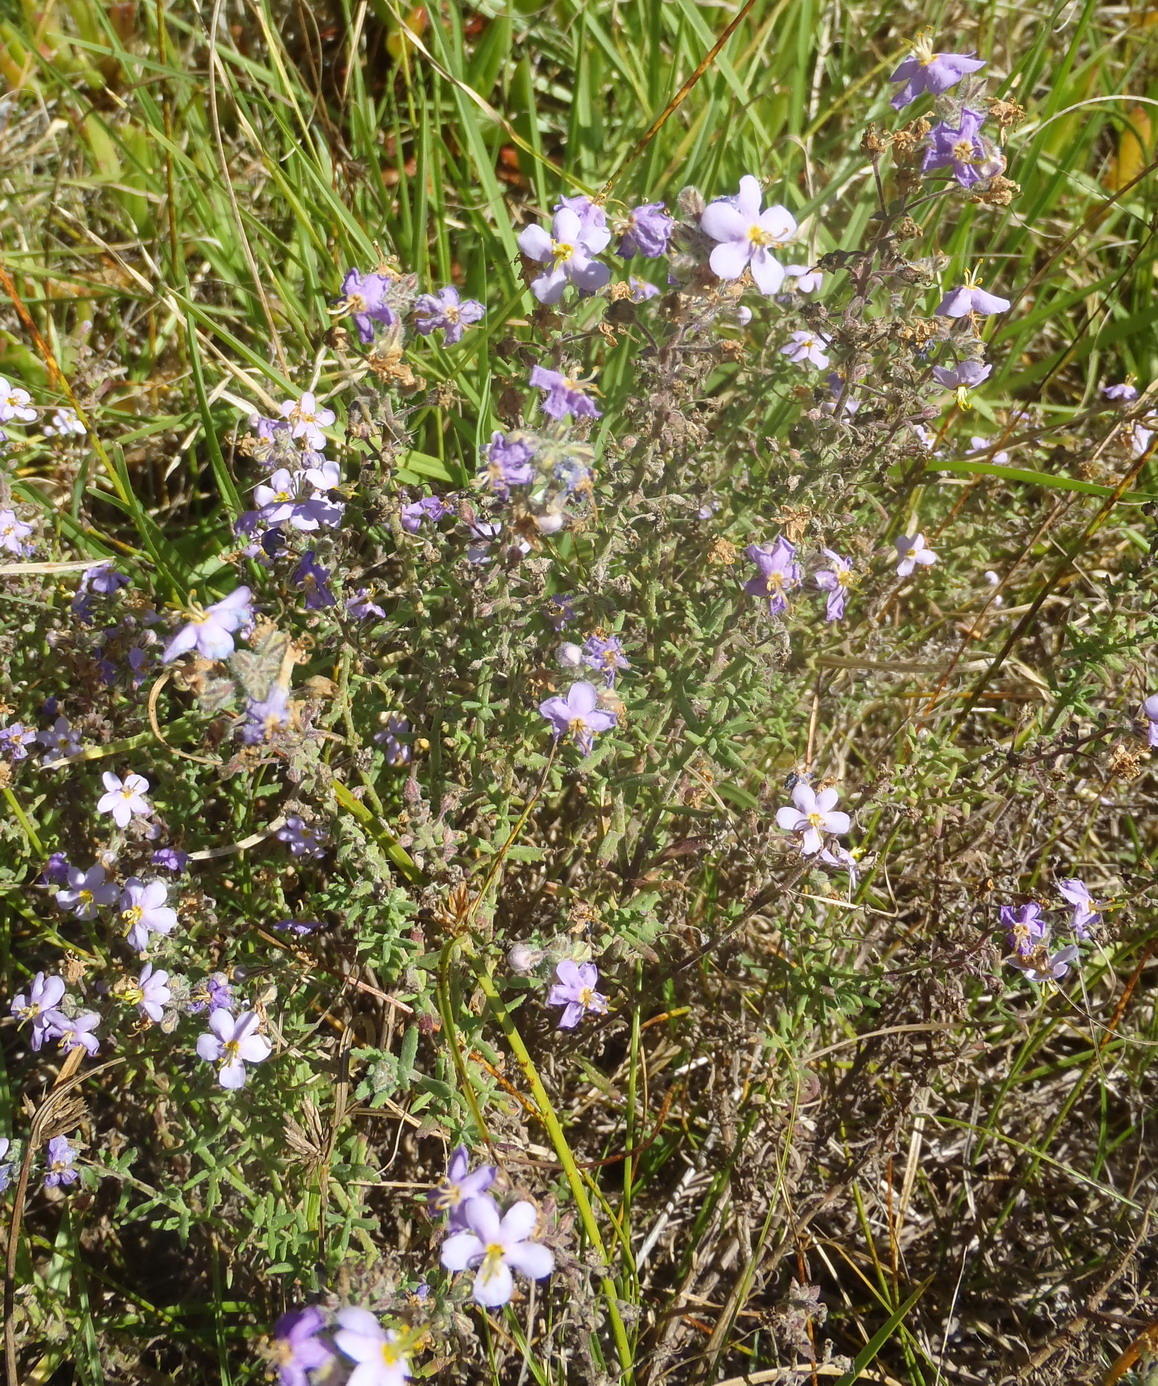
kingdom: Plantae
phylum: Tracheophyta
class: Magnoliopsida
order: Lamiales
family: Scrophulariaceae
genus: Chaenostoma
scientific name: Chaenostoma caeruleum
